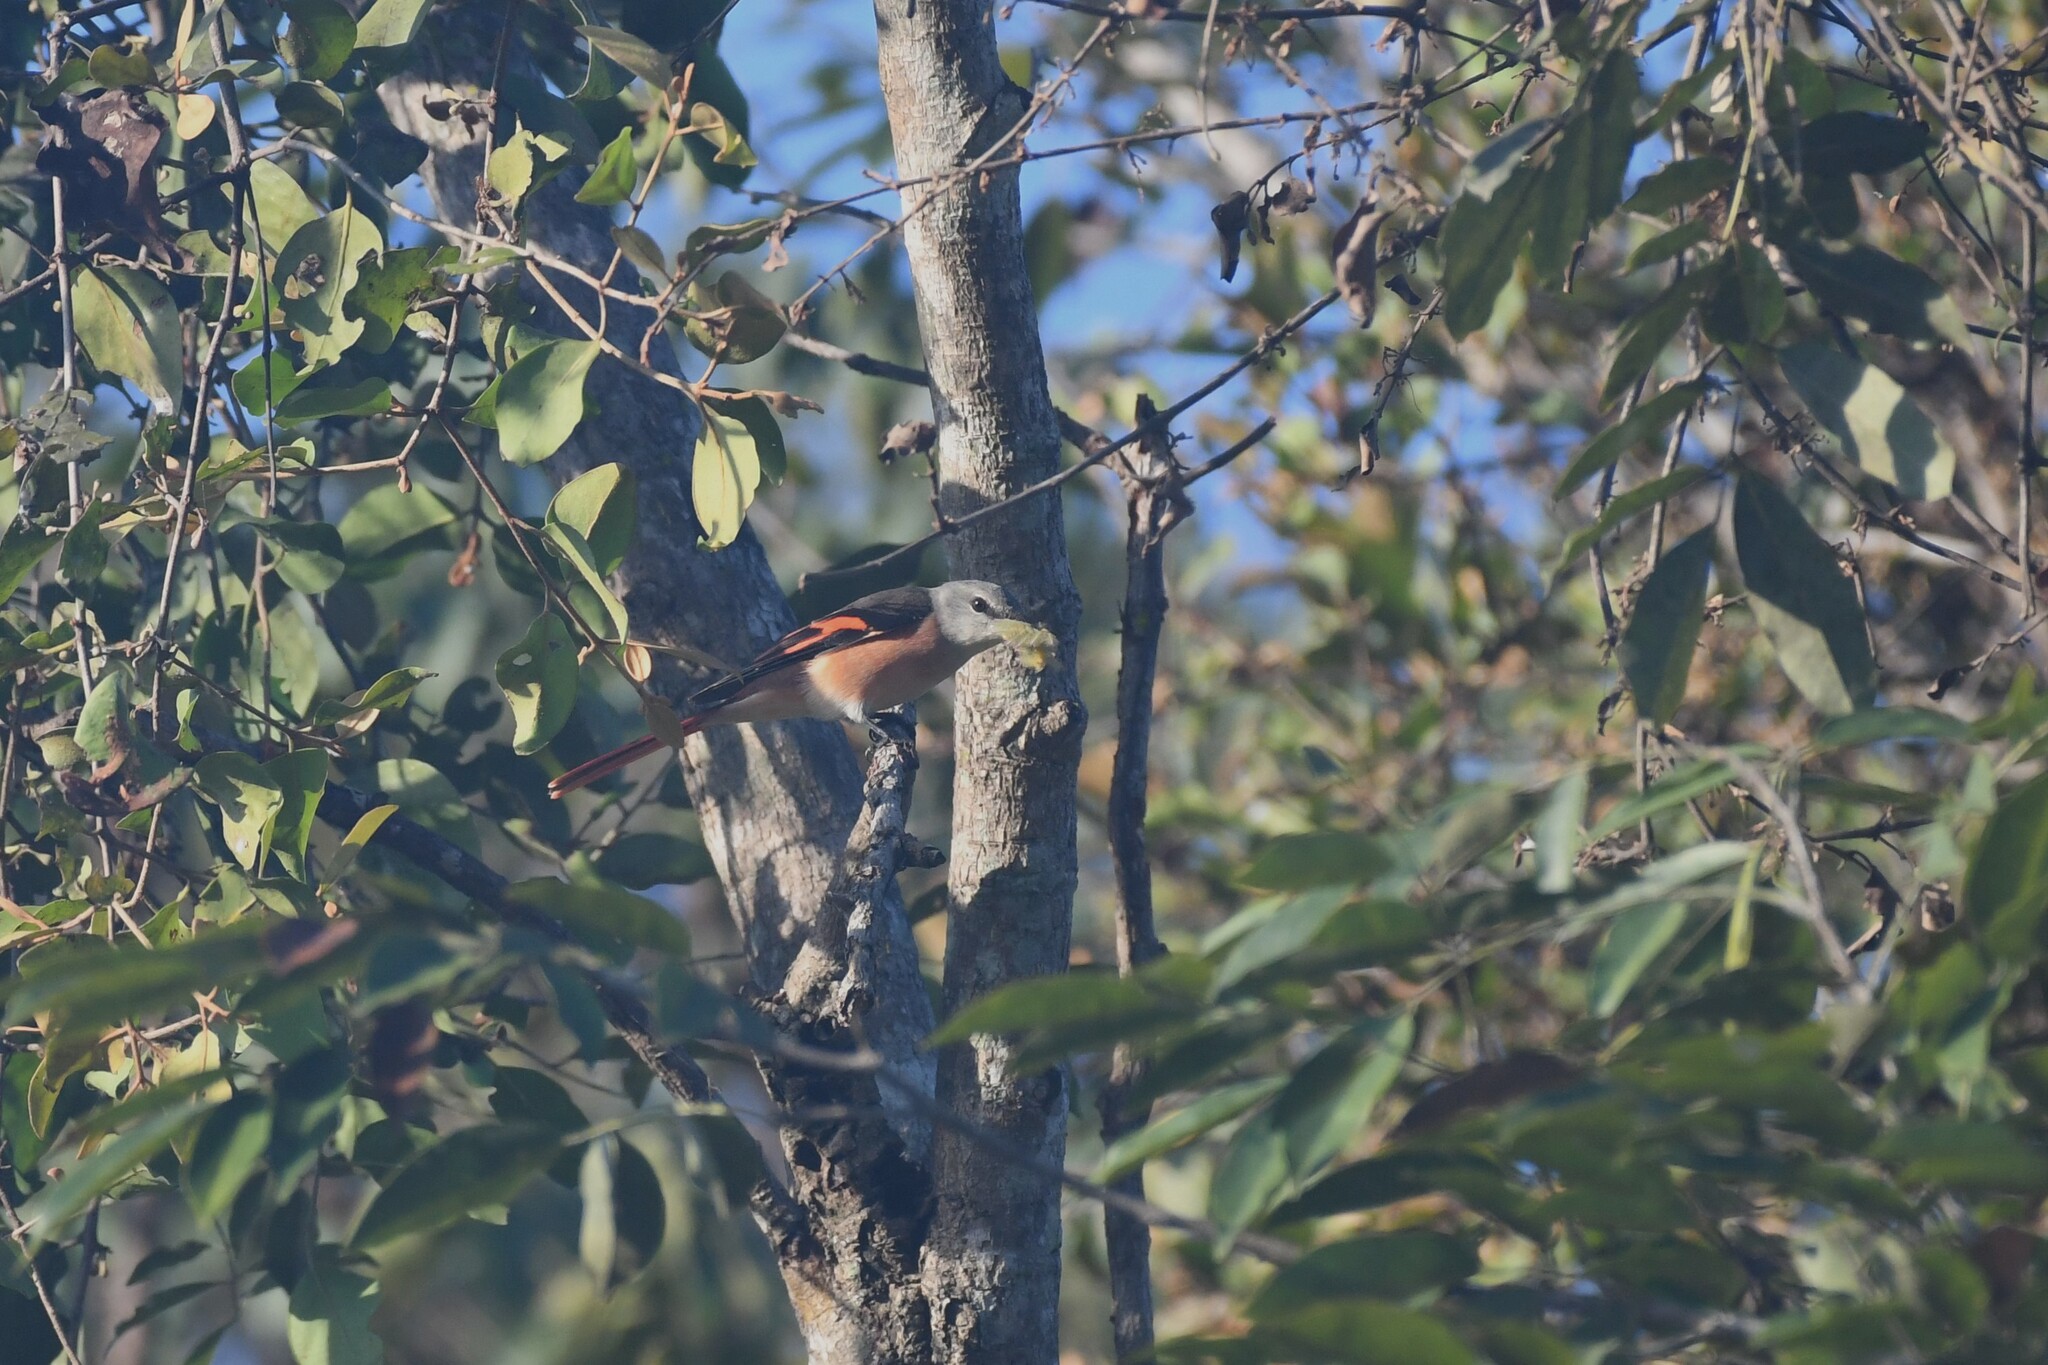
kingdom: Animalia
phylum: Chordata
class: Aves
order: Passeriformes
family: Campephagidae
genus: Pericrocotus
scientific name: Pericrocotus roseus
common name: Rosy minivet
